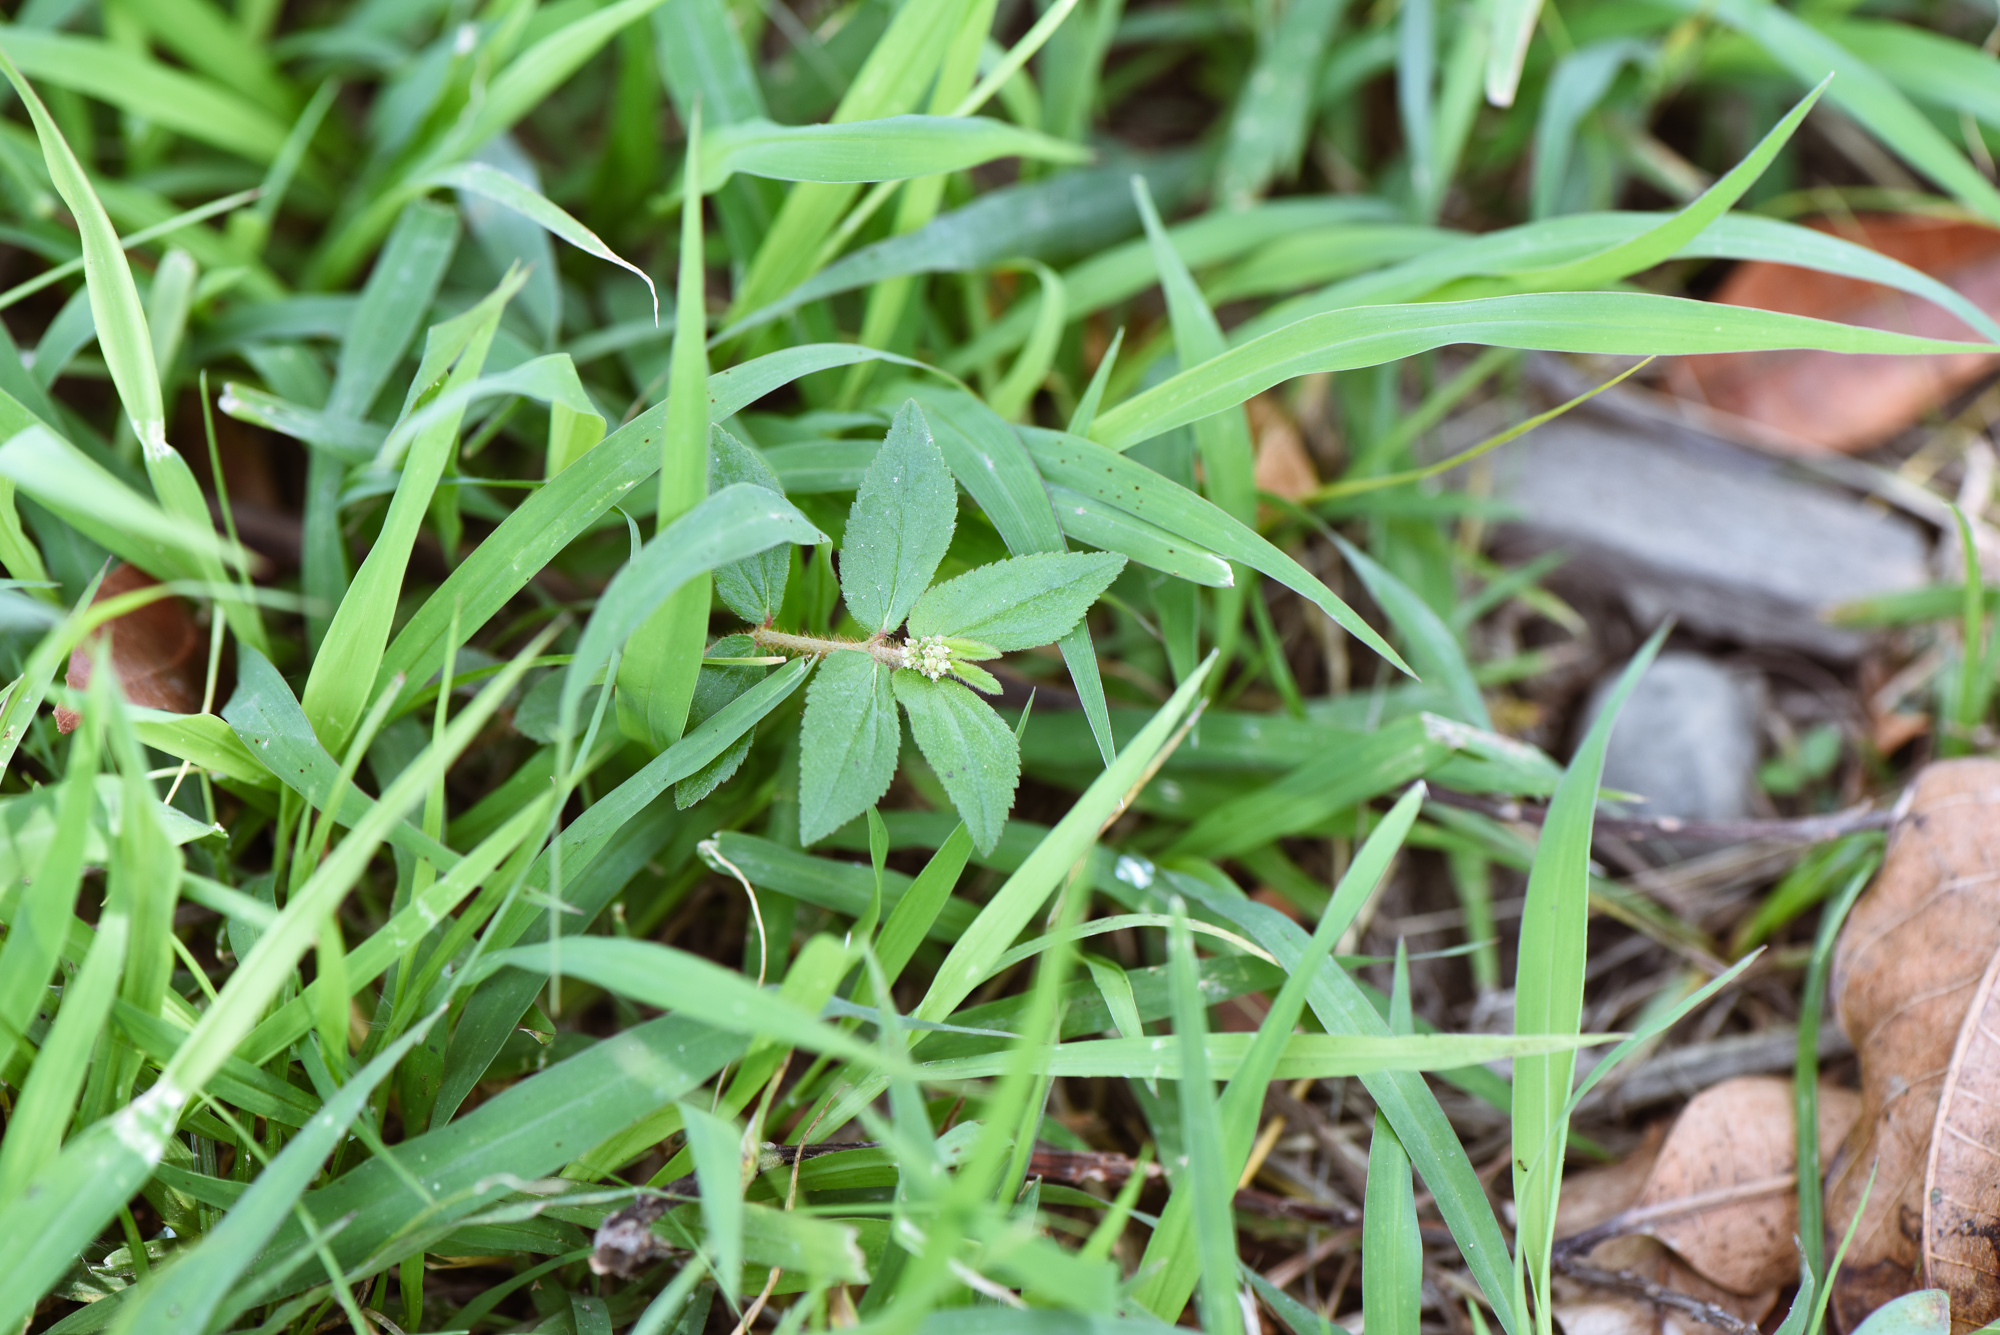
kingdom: Plantae
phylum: Tracheophyta
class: Magnoliopsida
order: Malpighiales
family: Euphorbiaceae
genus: Euphorbia
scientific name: Euphorbia hirta
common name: Pillpod sandmat
